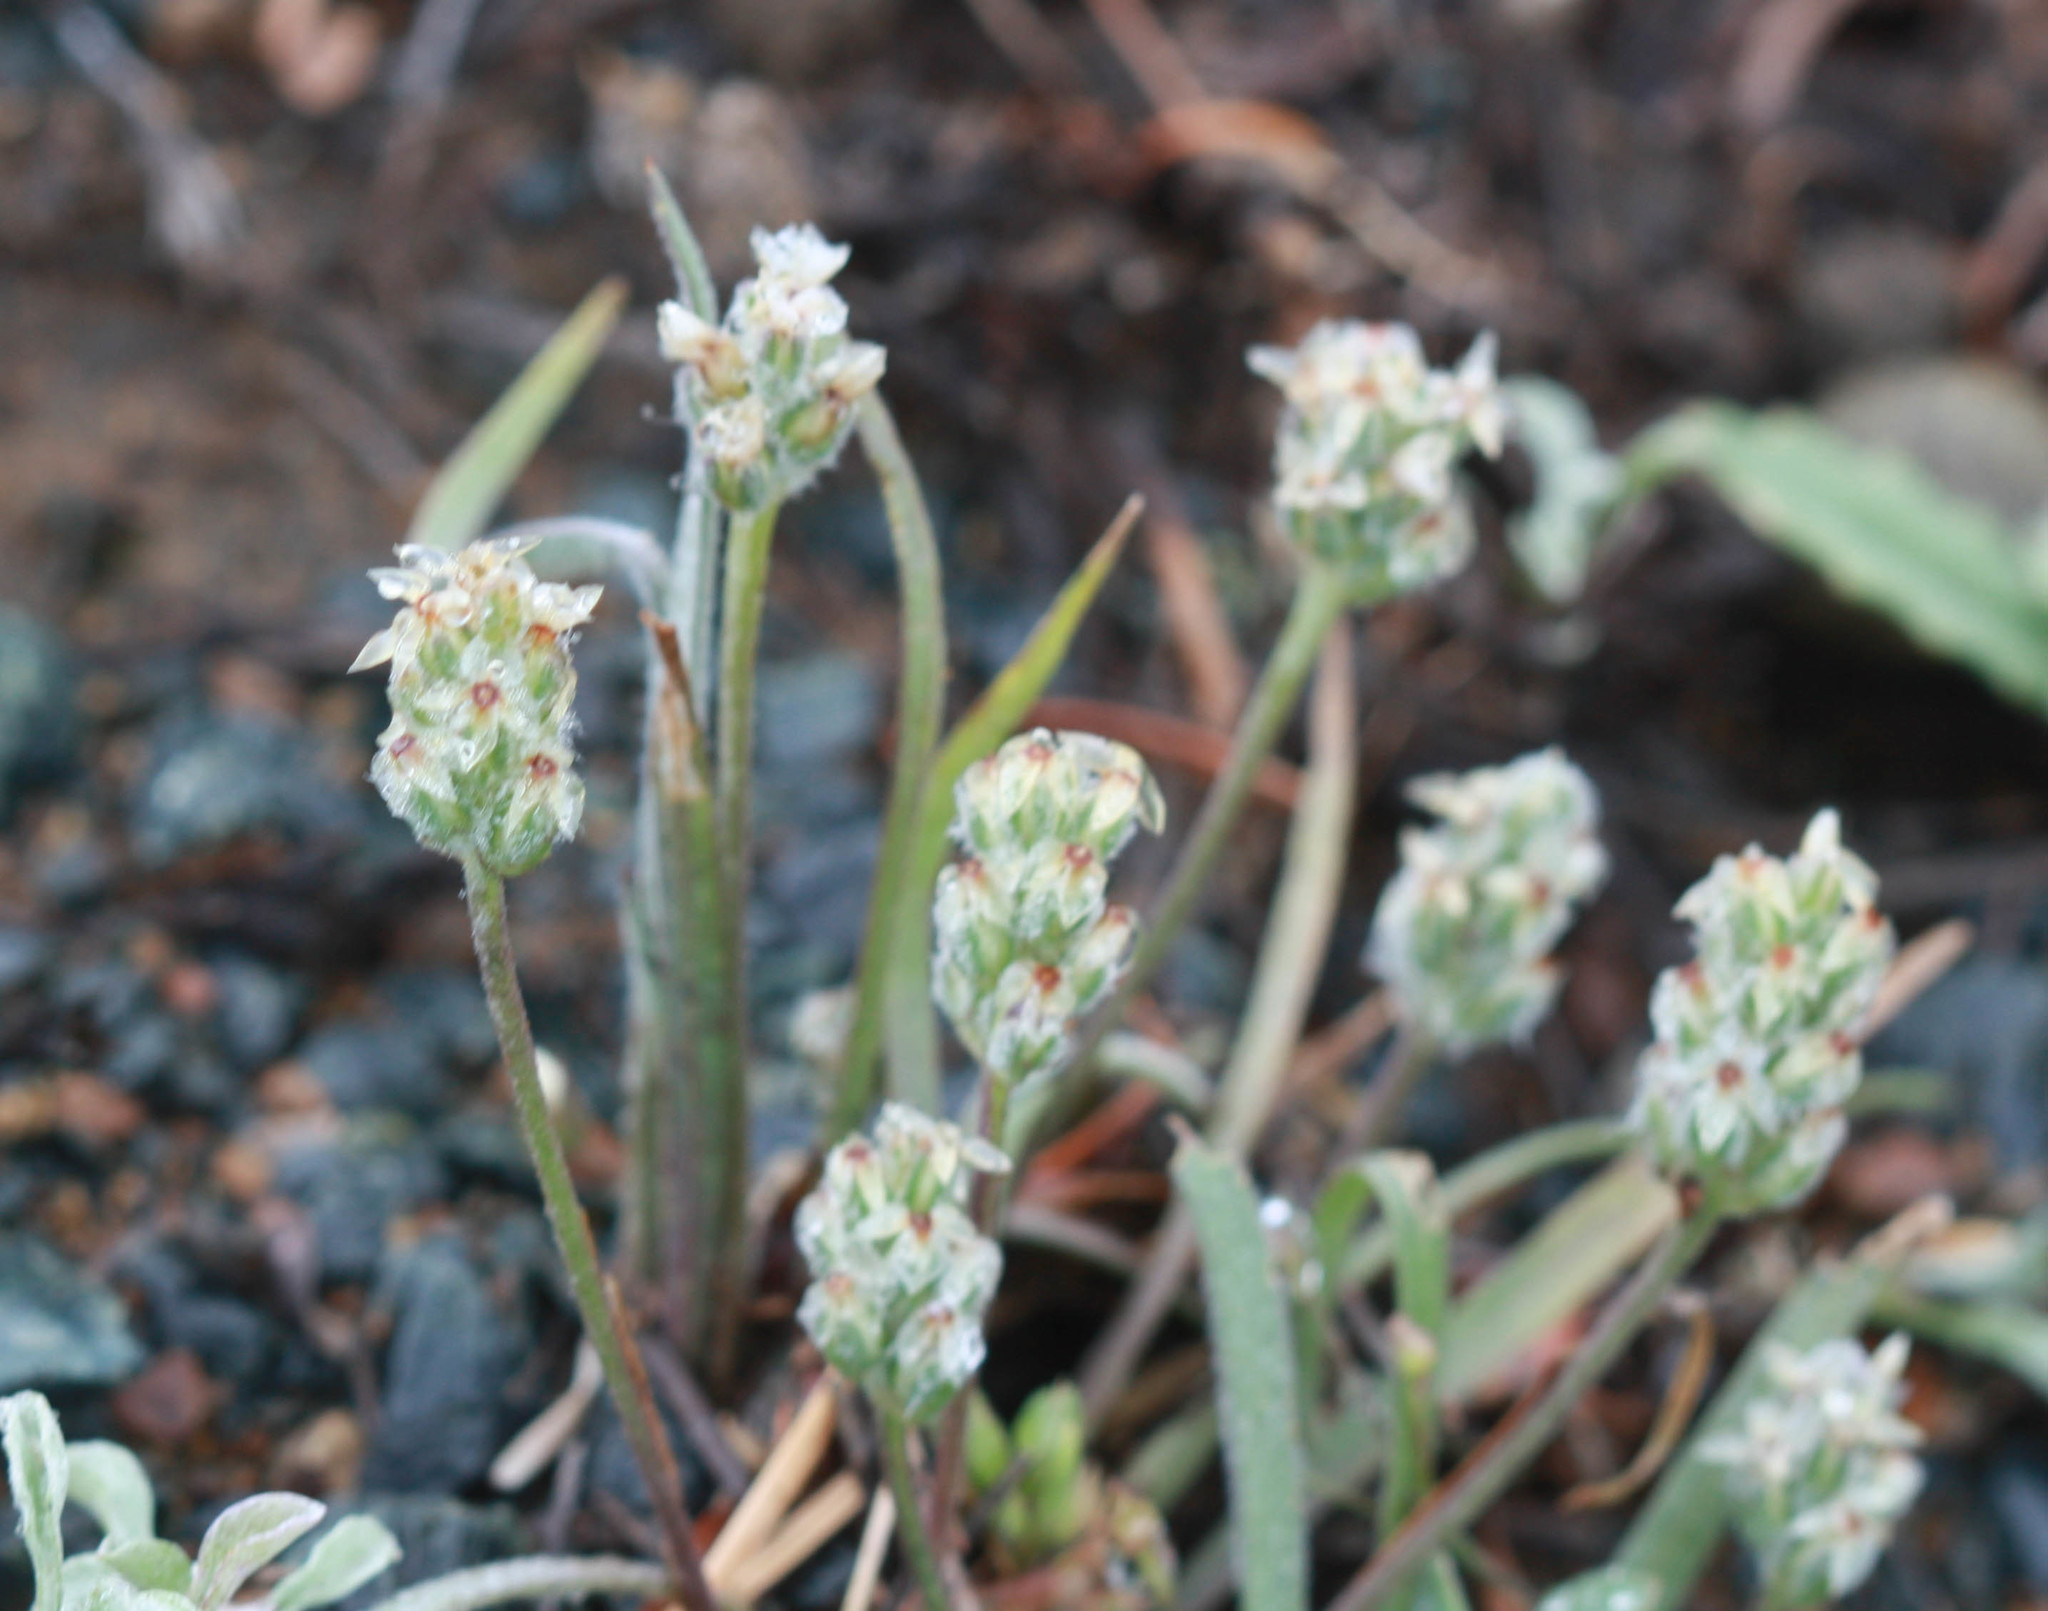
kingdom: Plantae
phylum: Tracheophyta
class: Magnoliopsida
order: Lamiales
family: Plantaginaceae
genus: Plantago
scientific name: Plantago erecta
